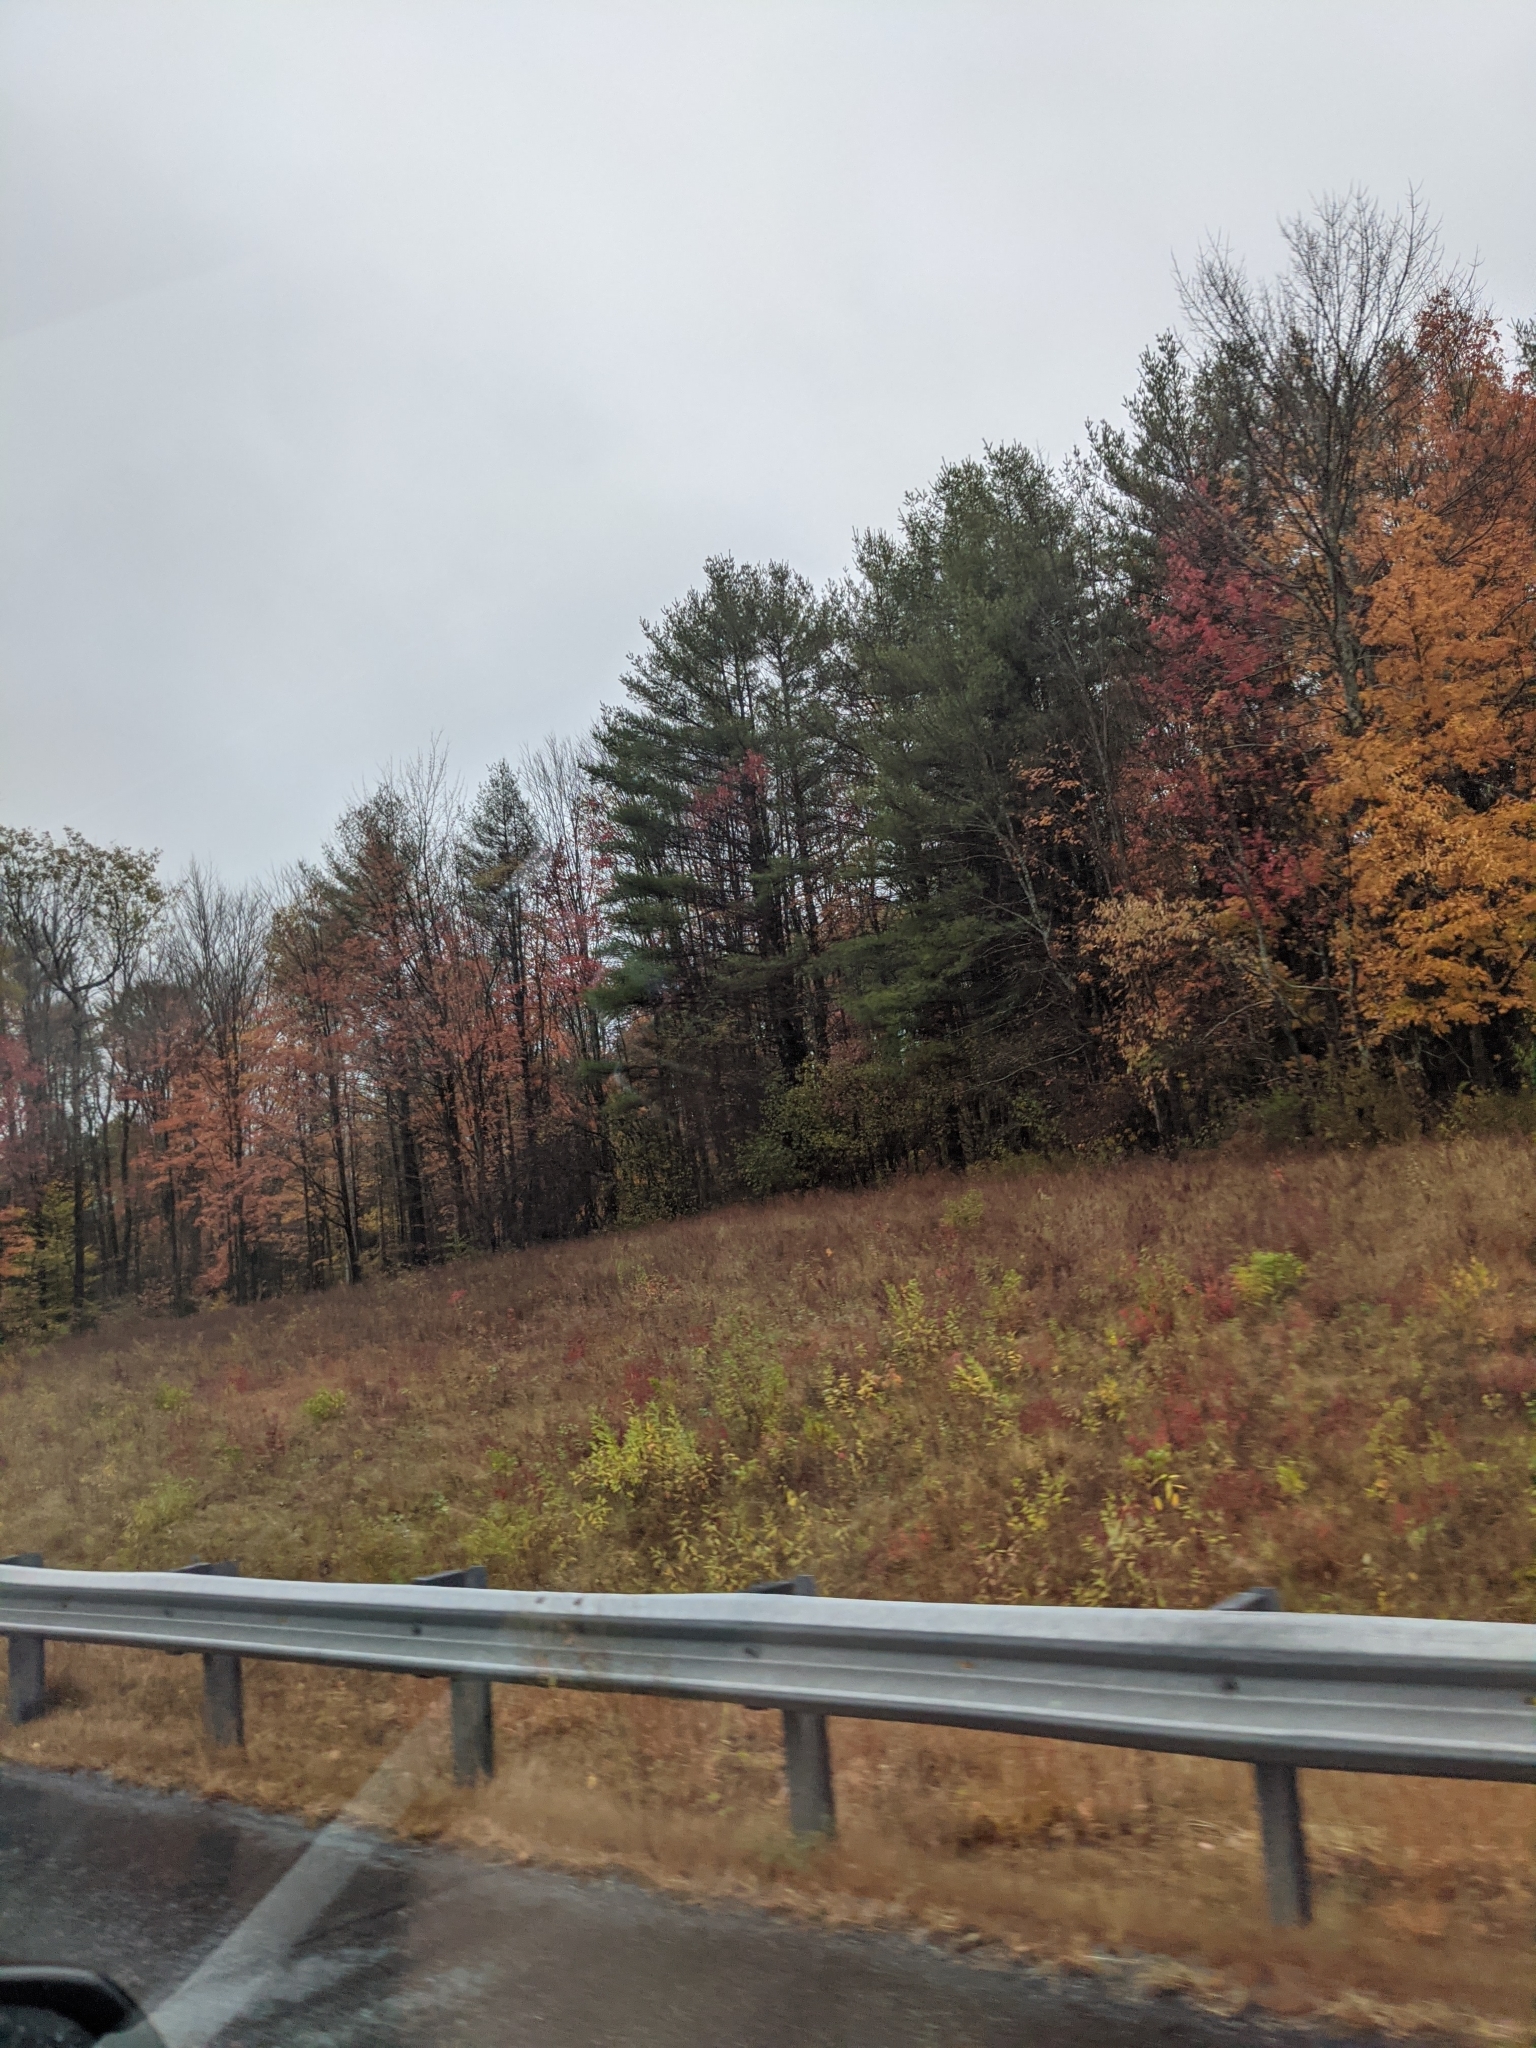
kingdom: Plantae
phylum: Tracheophyta
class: Pinopsida
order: Pinales
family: Pinaceae
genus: Pinus
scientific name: Pinus strobus
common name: Weymouth pine
